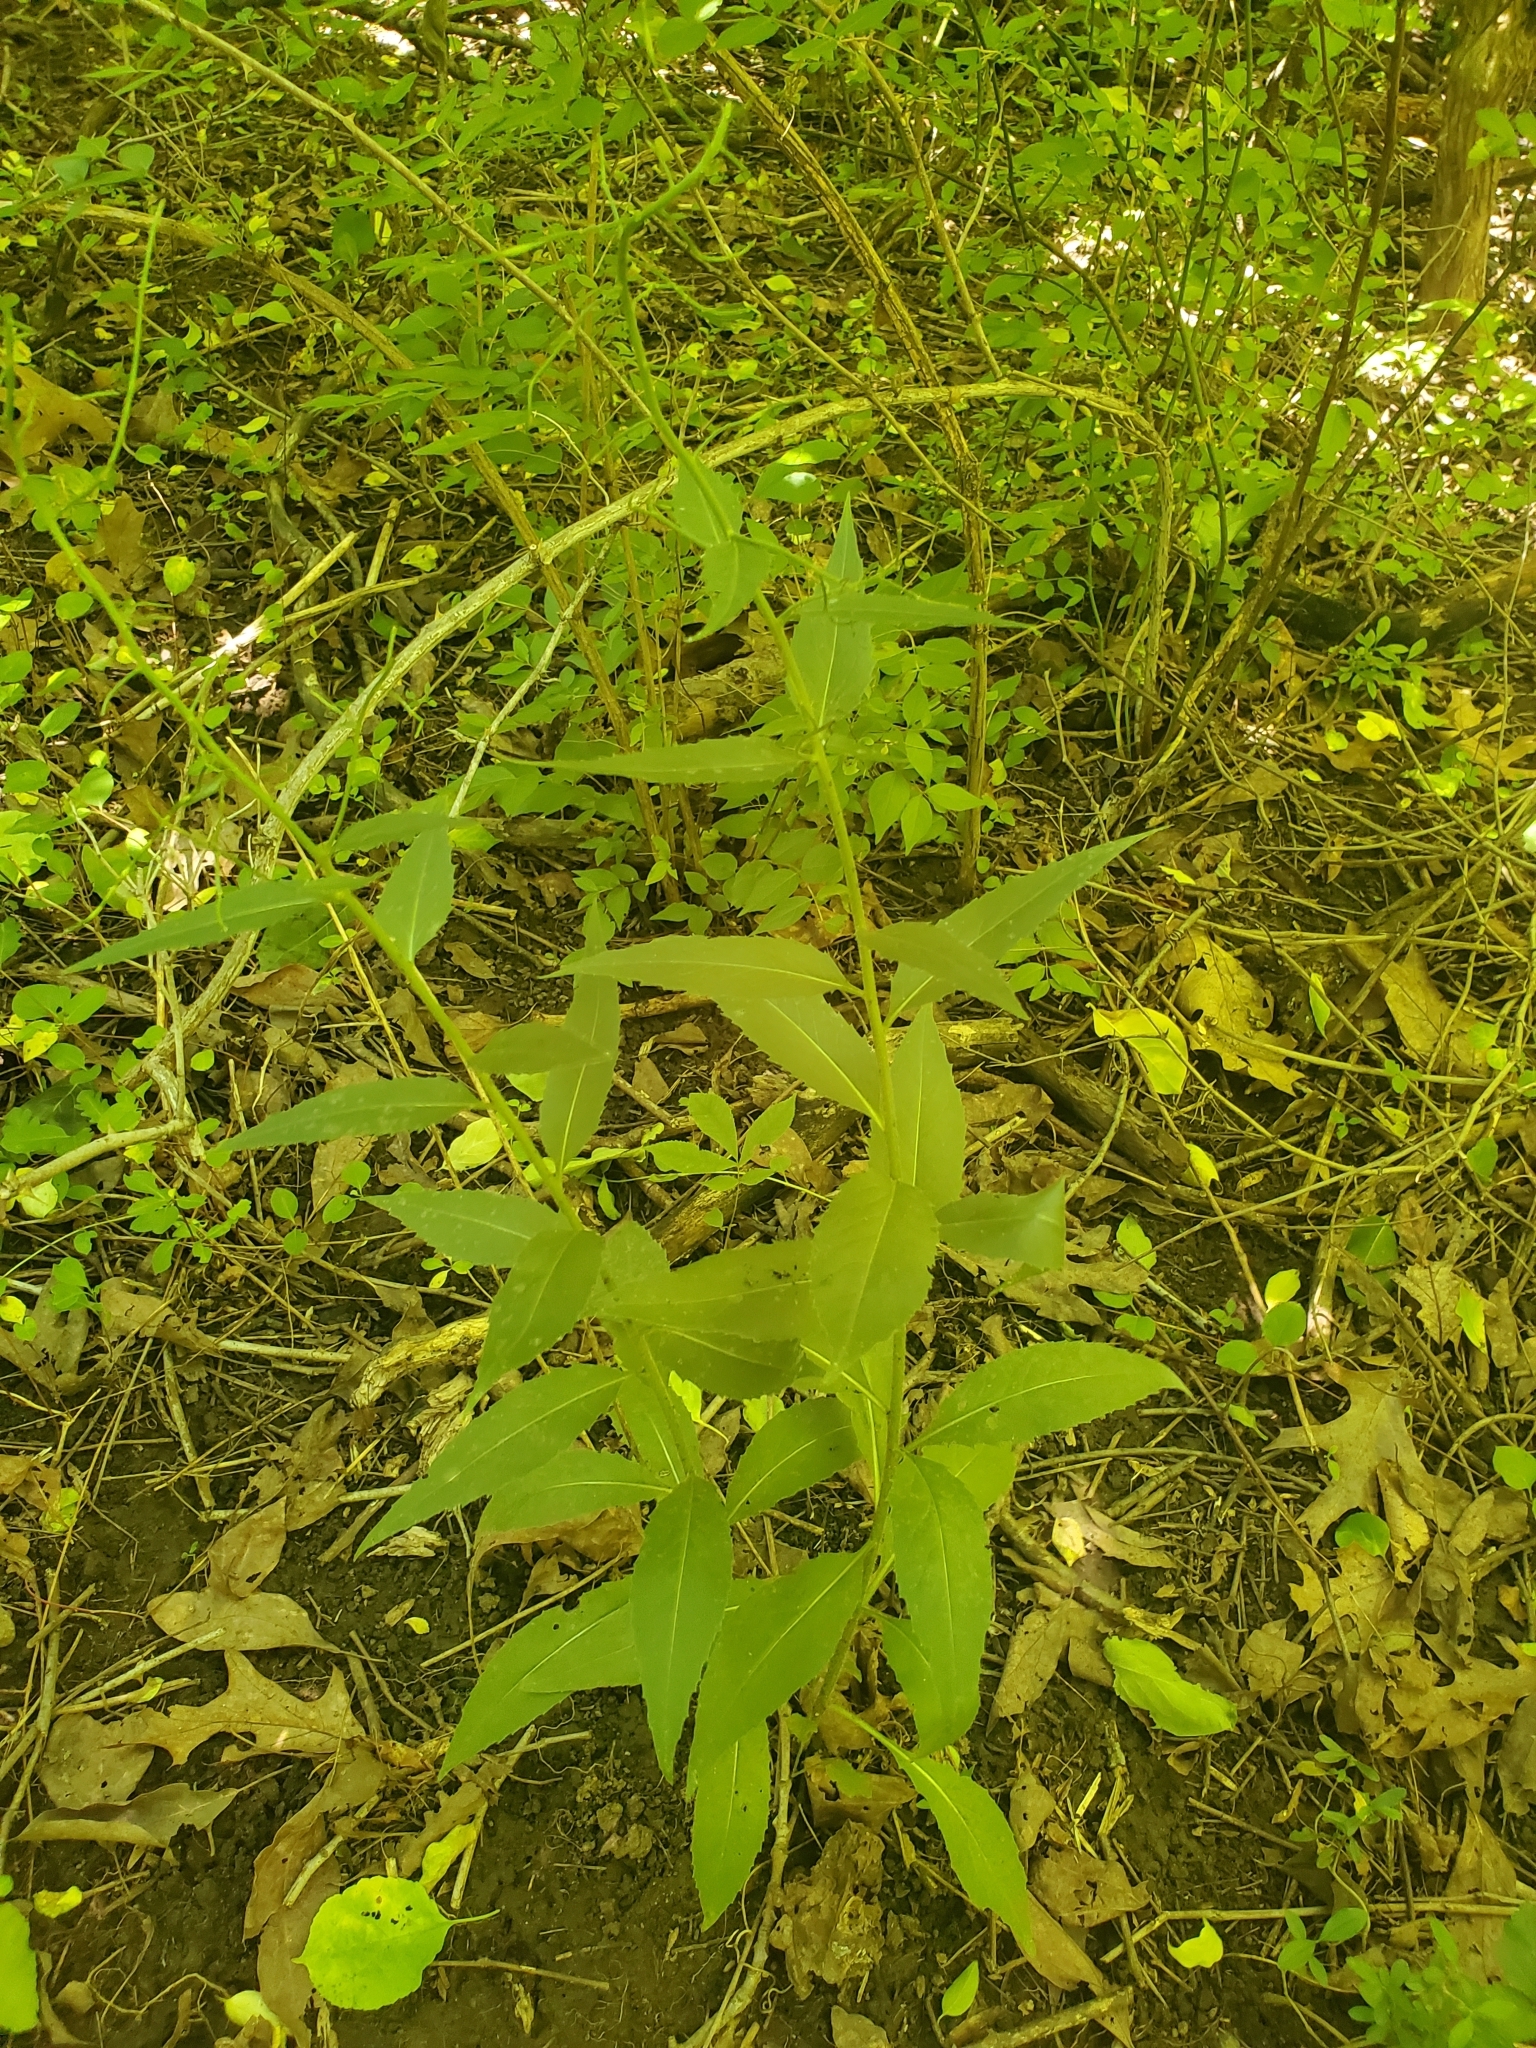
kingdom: Plantae
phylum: Tracheophyta
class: Magnoliopsida
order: Brassicales
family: Brassicaceae
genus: Hesperis
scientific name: Hesperis matronalis
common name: Dame's-violet
